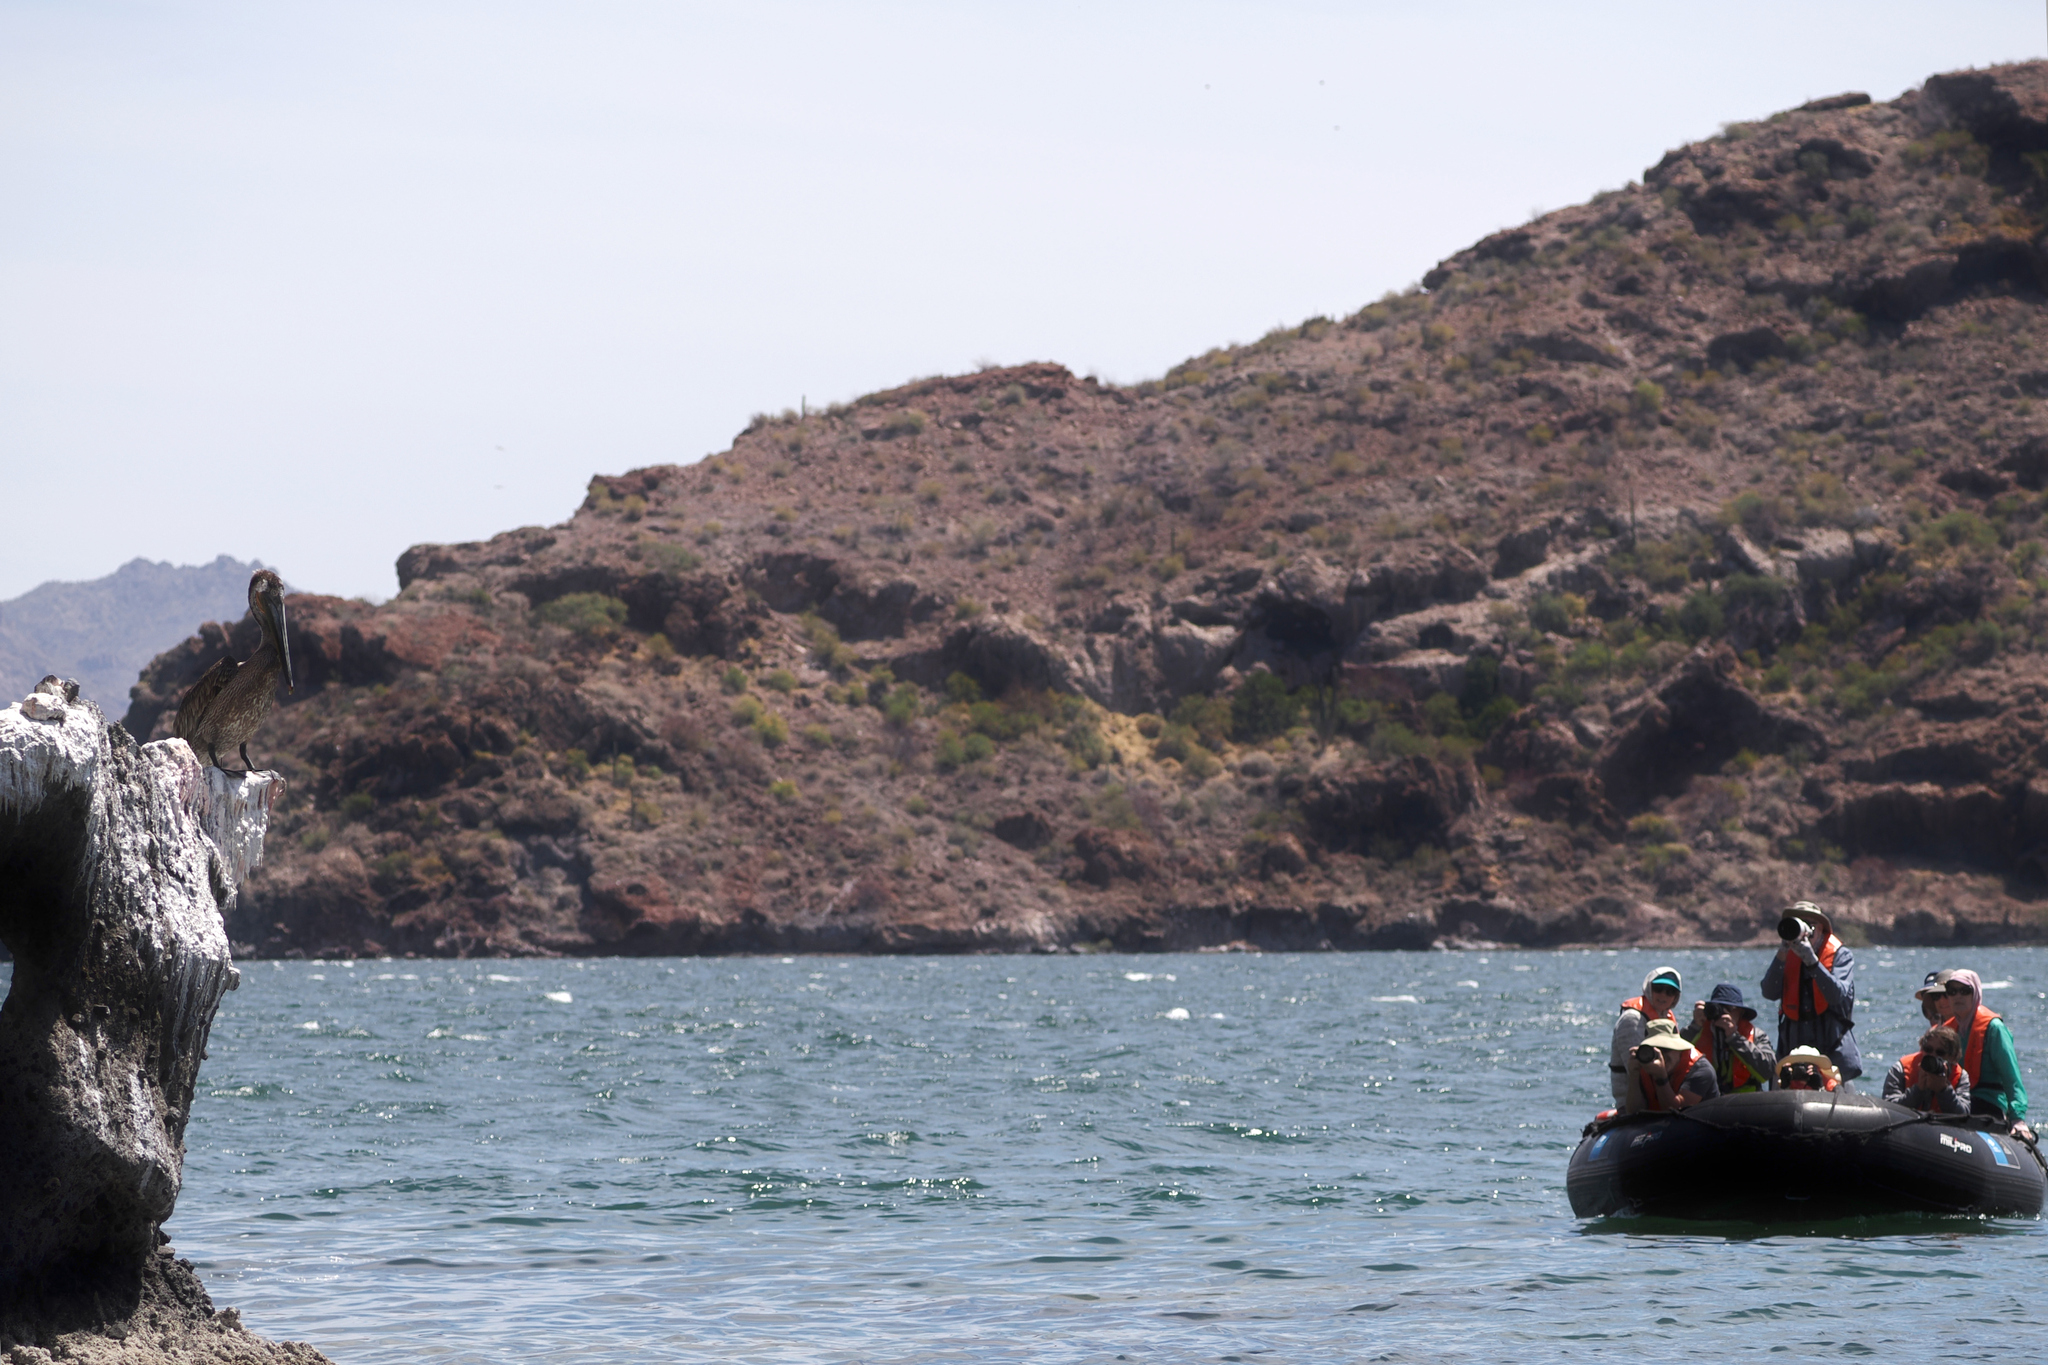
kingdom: Animalia
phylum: Chordata
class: Aves
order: Pelecaniformes
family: Pelecanidae
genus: Pelecanus
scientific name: Pelecanus occidentalis
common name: Brown pelican
